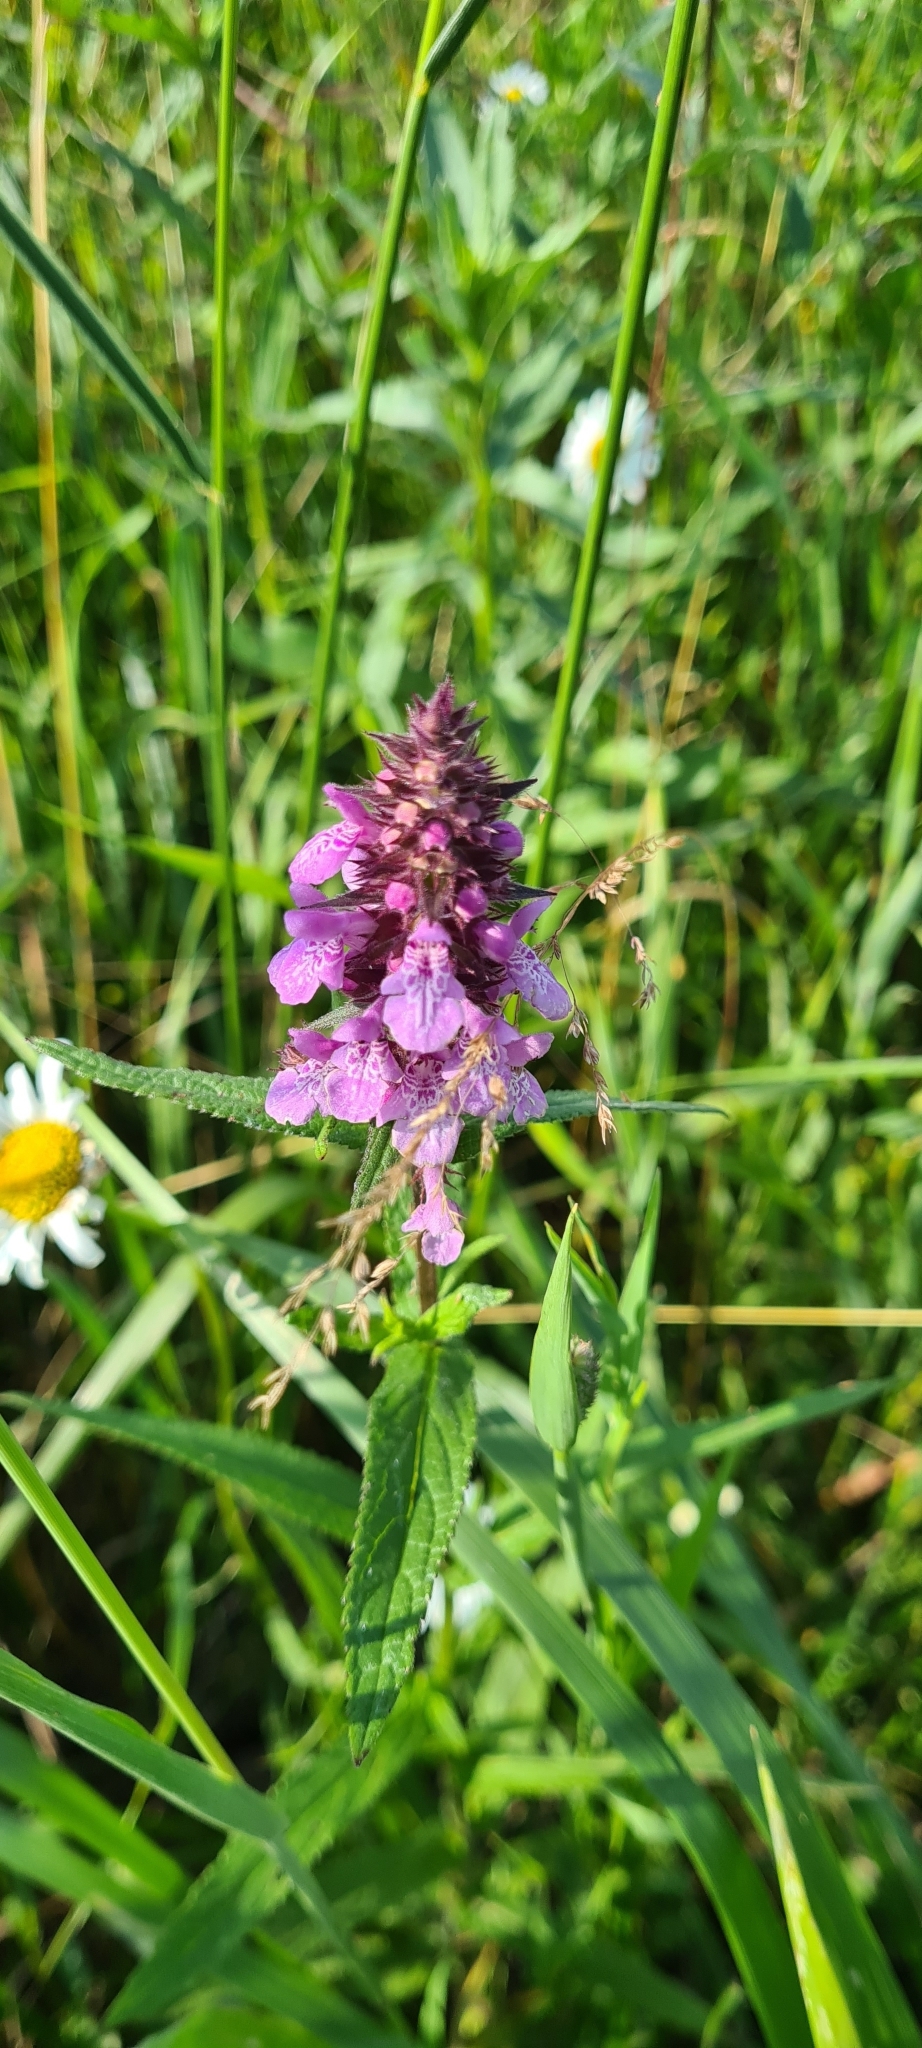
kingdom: Plantae
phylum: Tracheophyta
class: Magnoliopsida
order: Lamiales
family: Lamiaceae
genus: Stachys
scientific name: Stachys palustris
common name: Marsh woundwort
